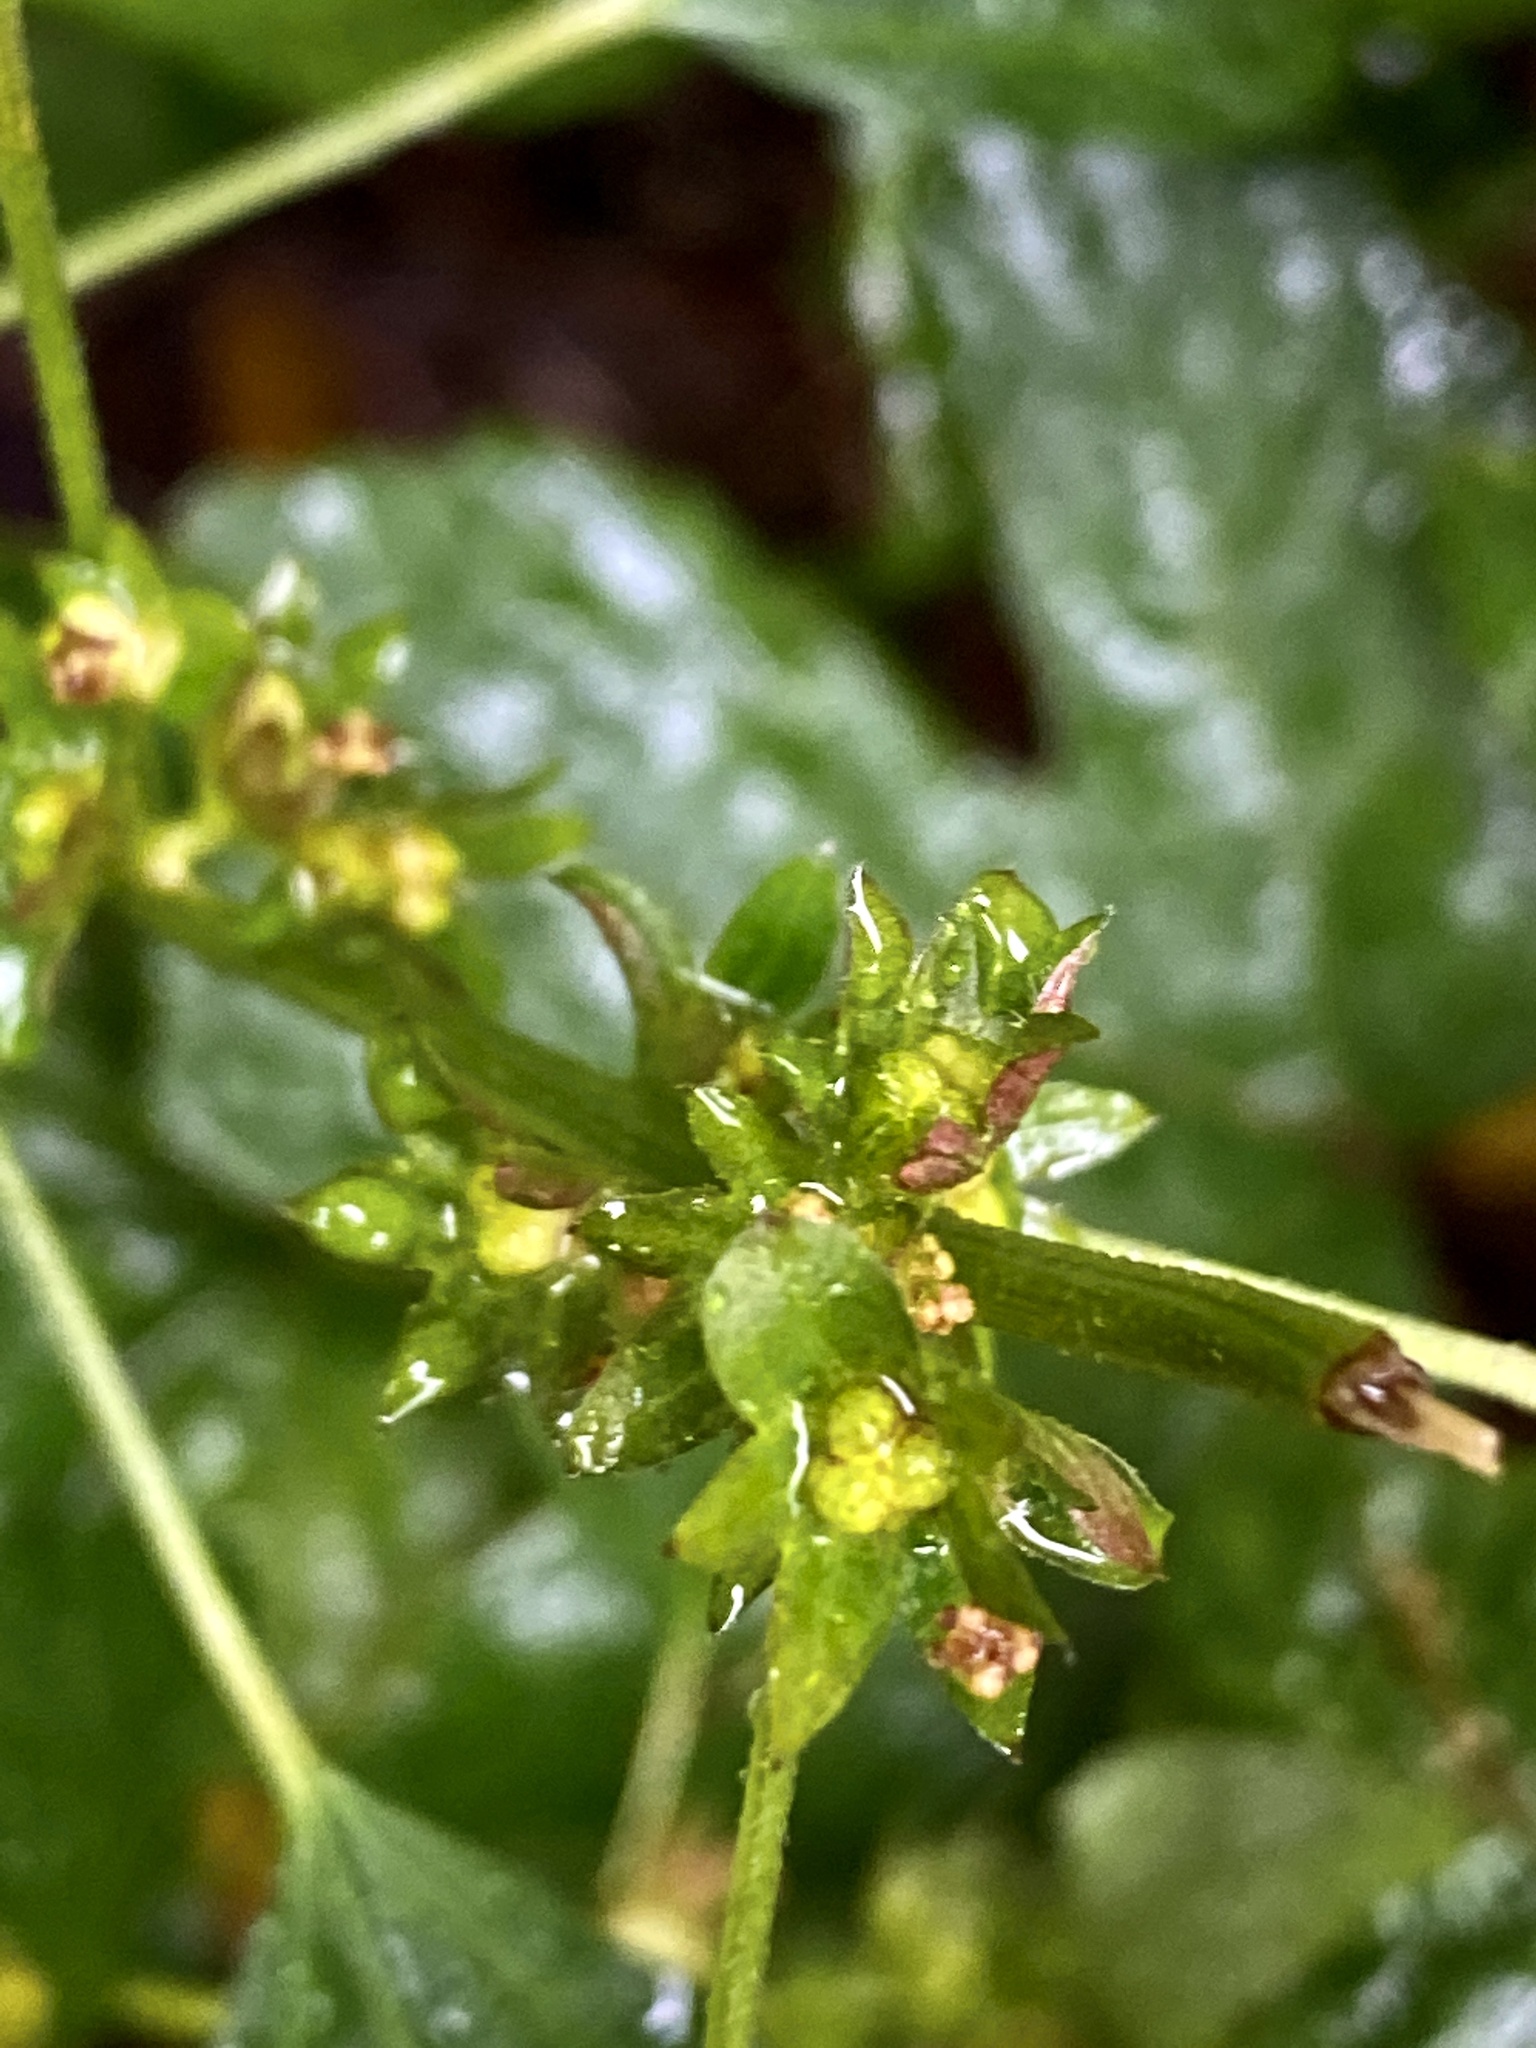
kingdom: Plantae
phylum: Tracheophyta
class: Magnoliopsida
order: Malpighiales
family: Euphorbiaceae
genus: Acalypha
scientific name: Acalypha rhomboidea
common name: Rhombic copperleaf
